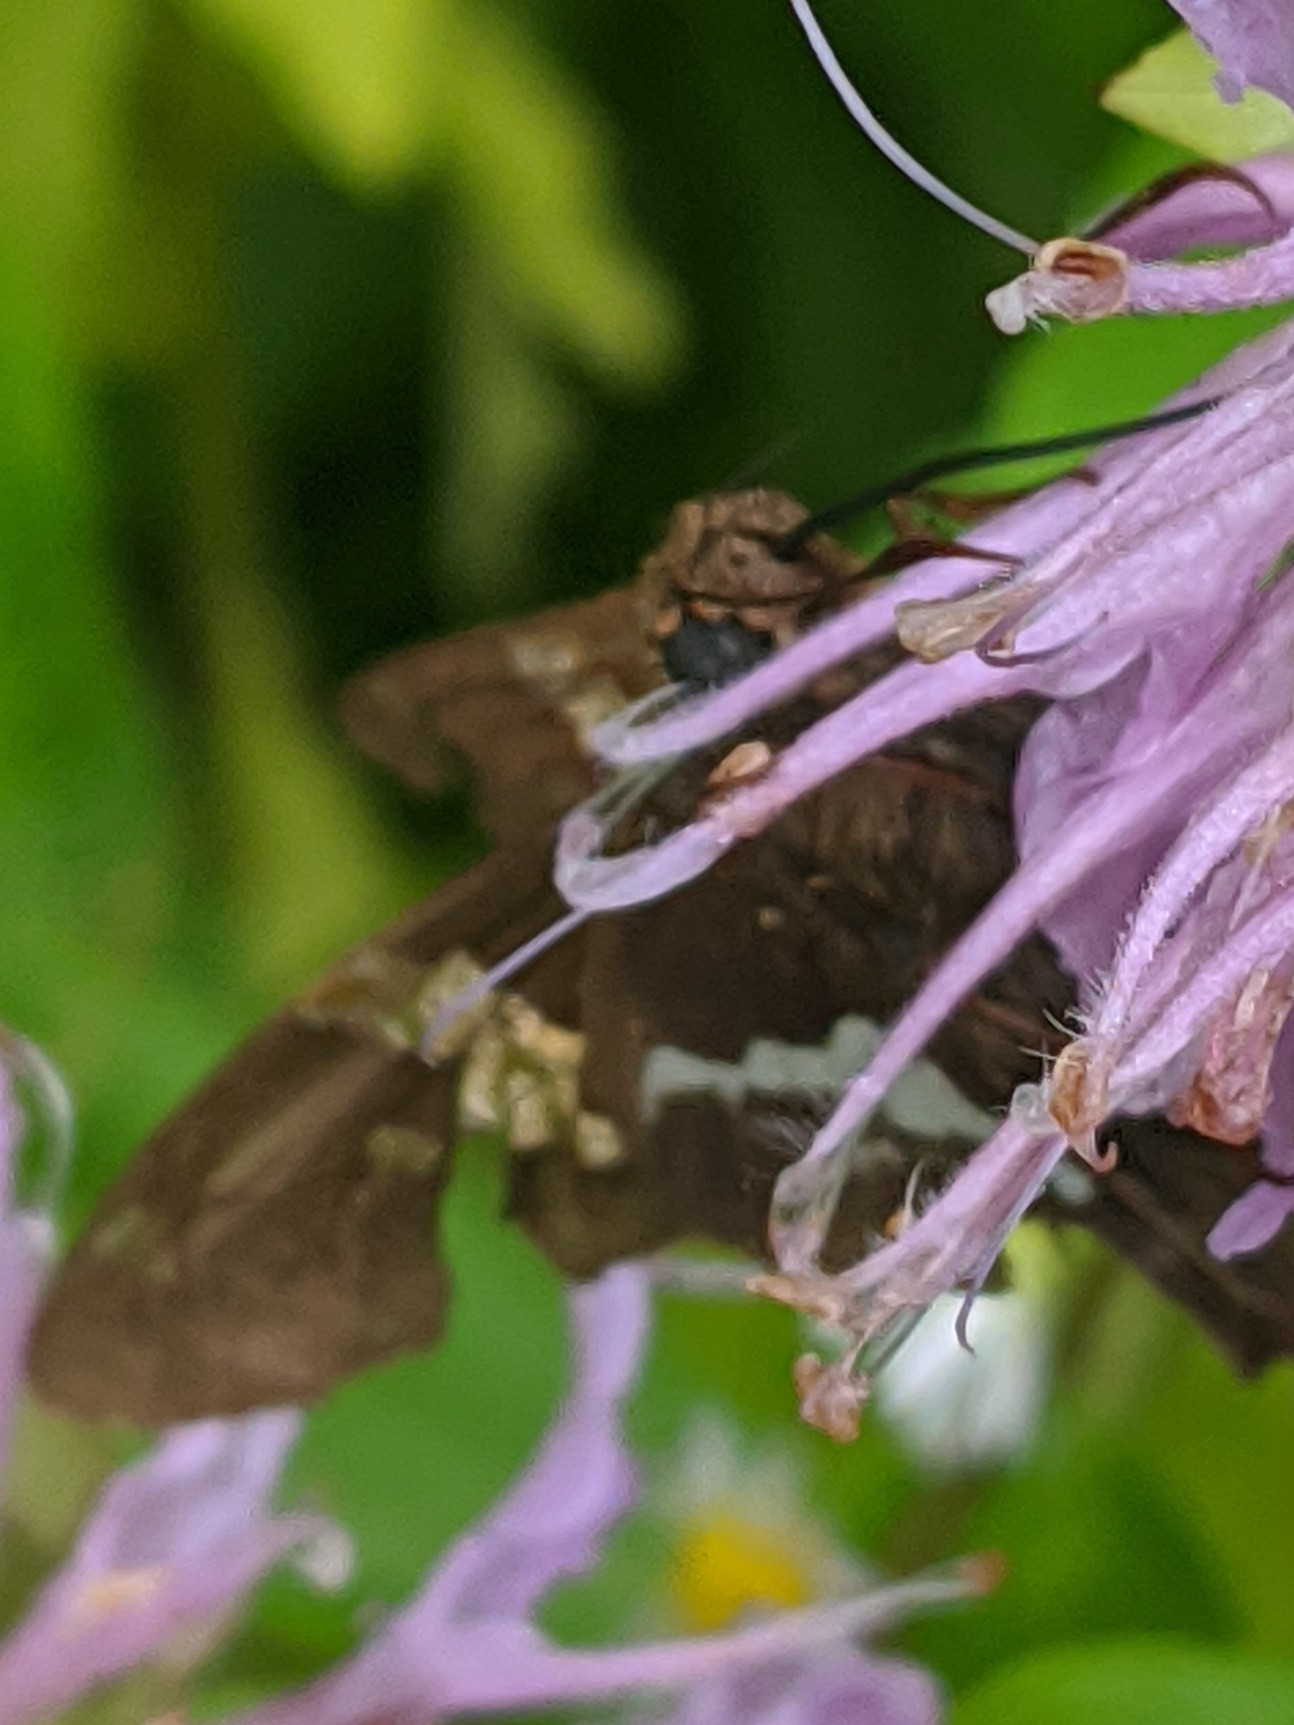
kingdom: Animalia
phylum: Arthropoda
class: Insecta
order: Lepidoptera
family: Hesperiidae
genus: Epargyreus
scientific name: Epargyreus clarus
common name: Silver-spotted skipper
